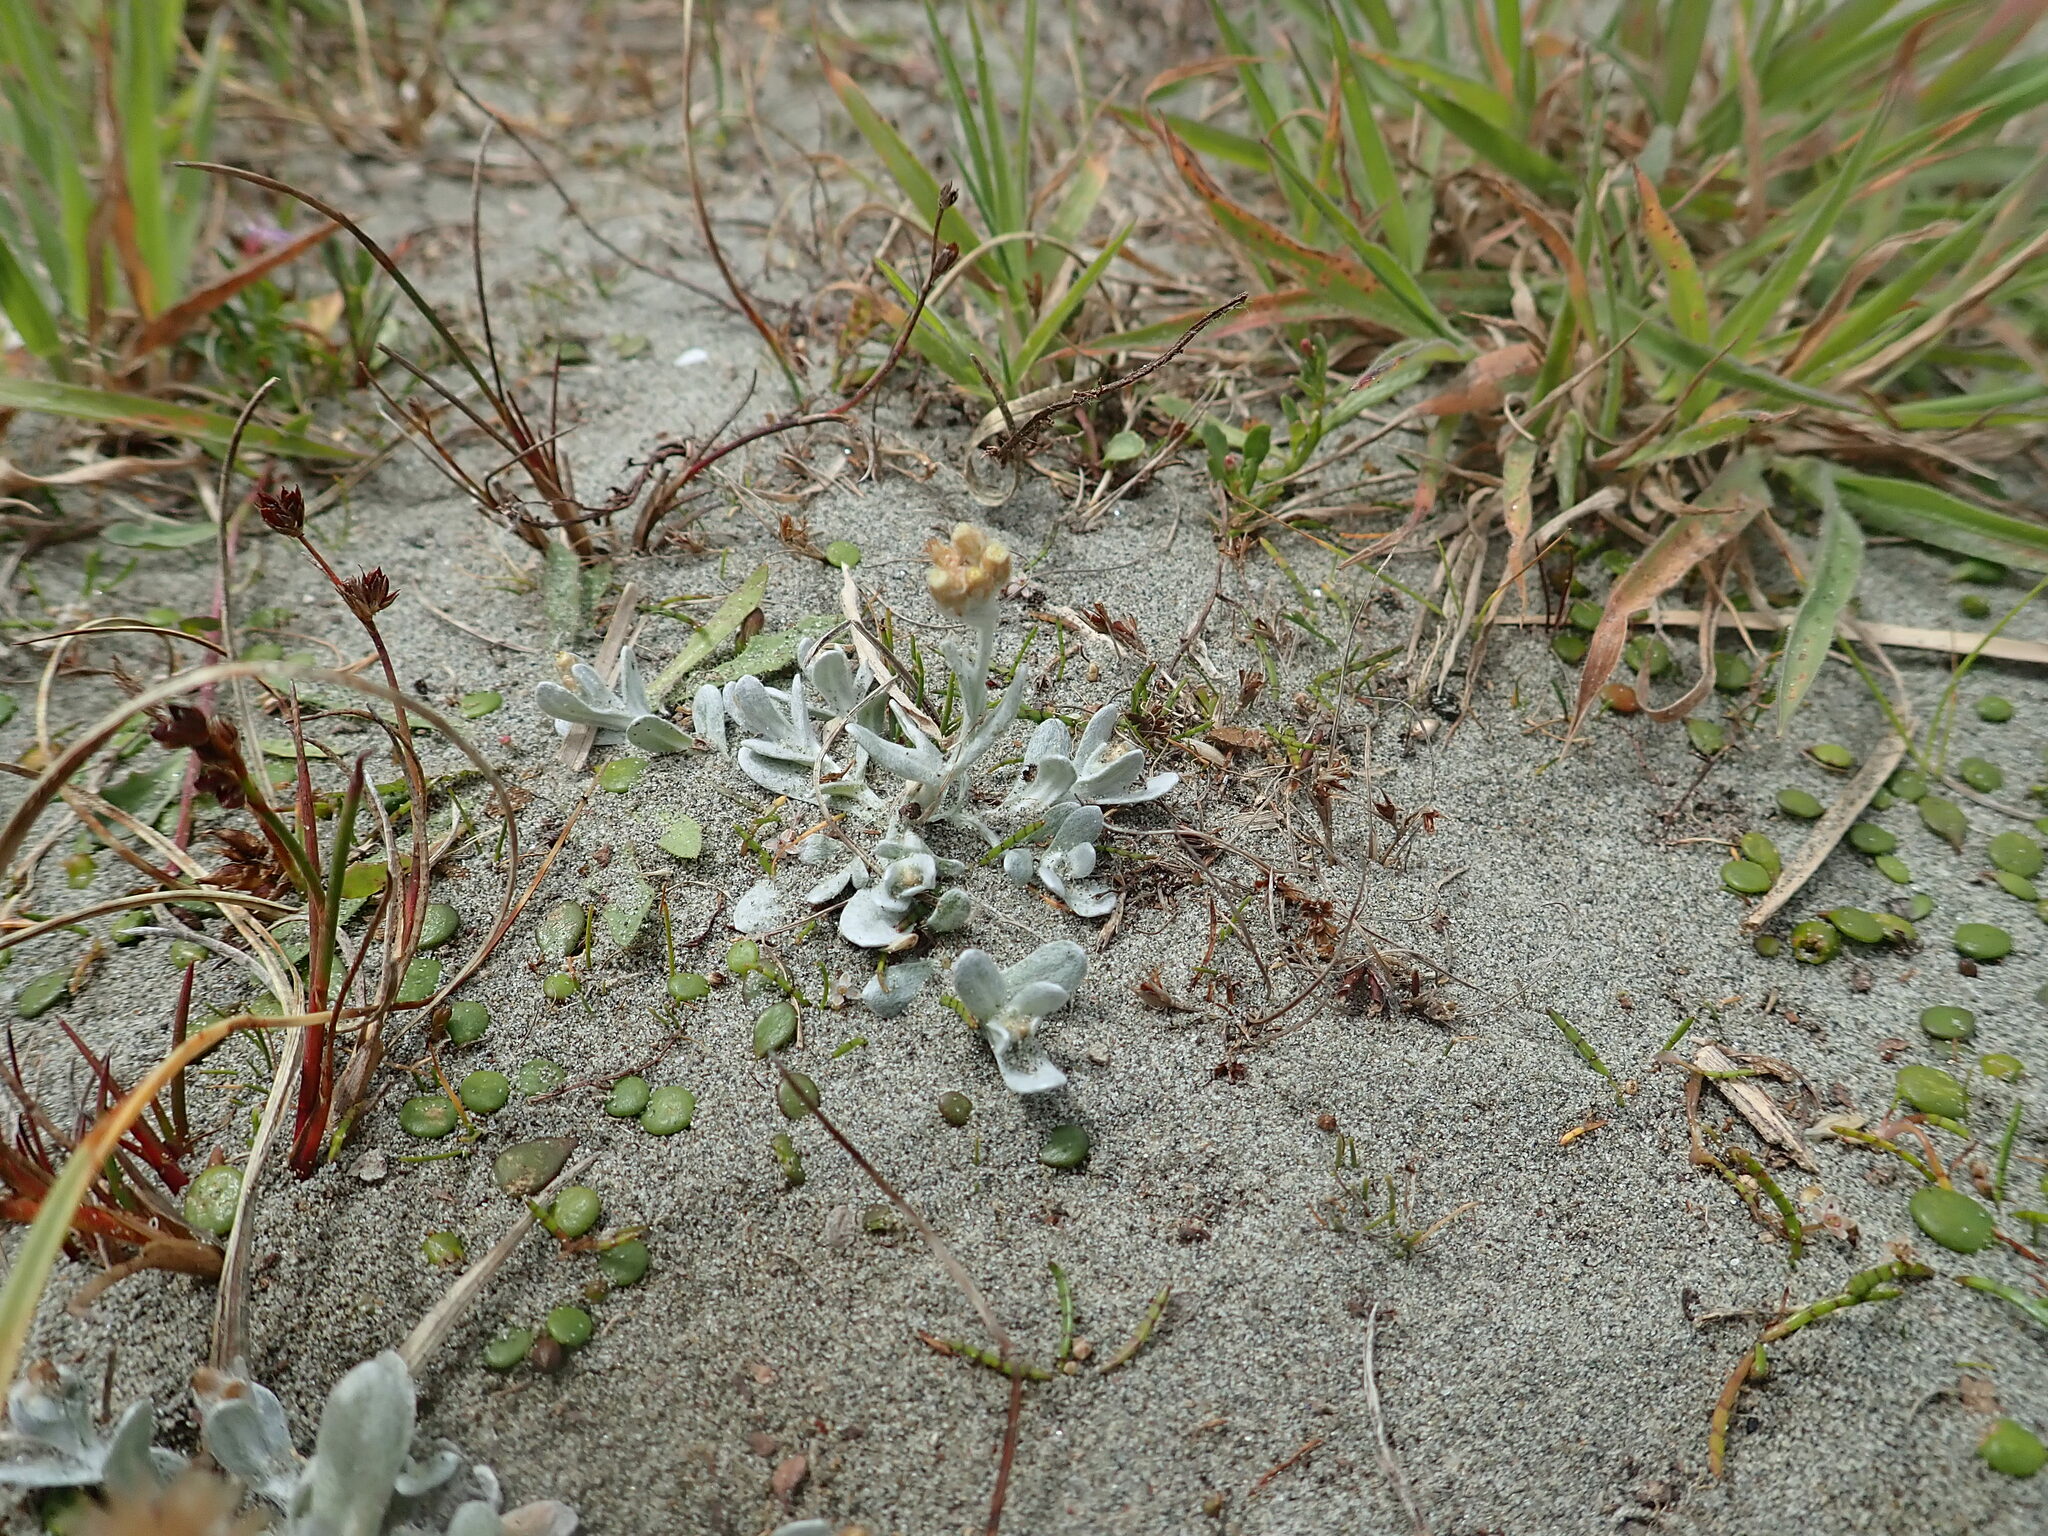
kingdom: Plantae
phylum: Tracheophyta
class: Magnoliopsida
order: Asterales
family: Asteraceae
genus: Pseudognaphalium
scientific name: Pseudognaphalium
